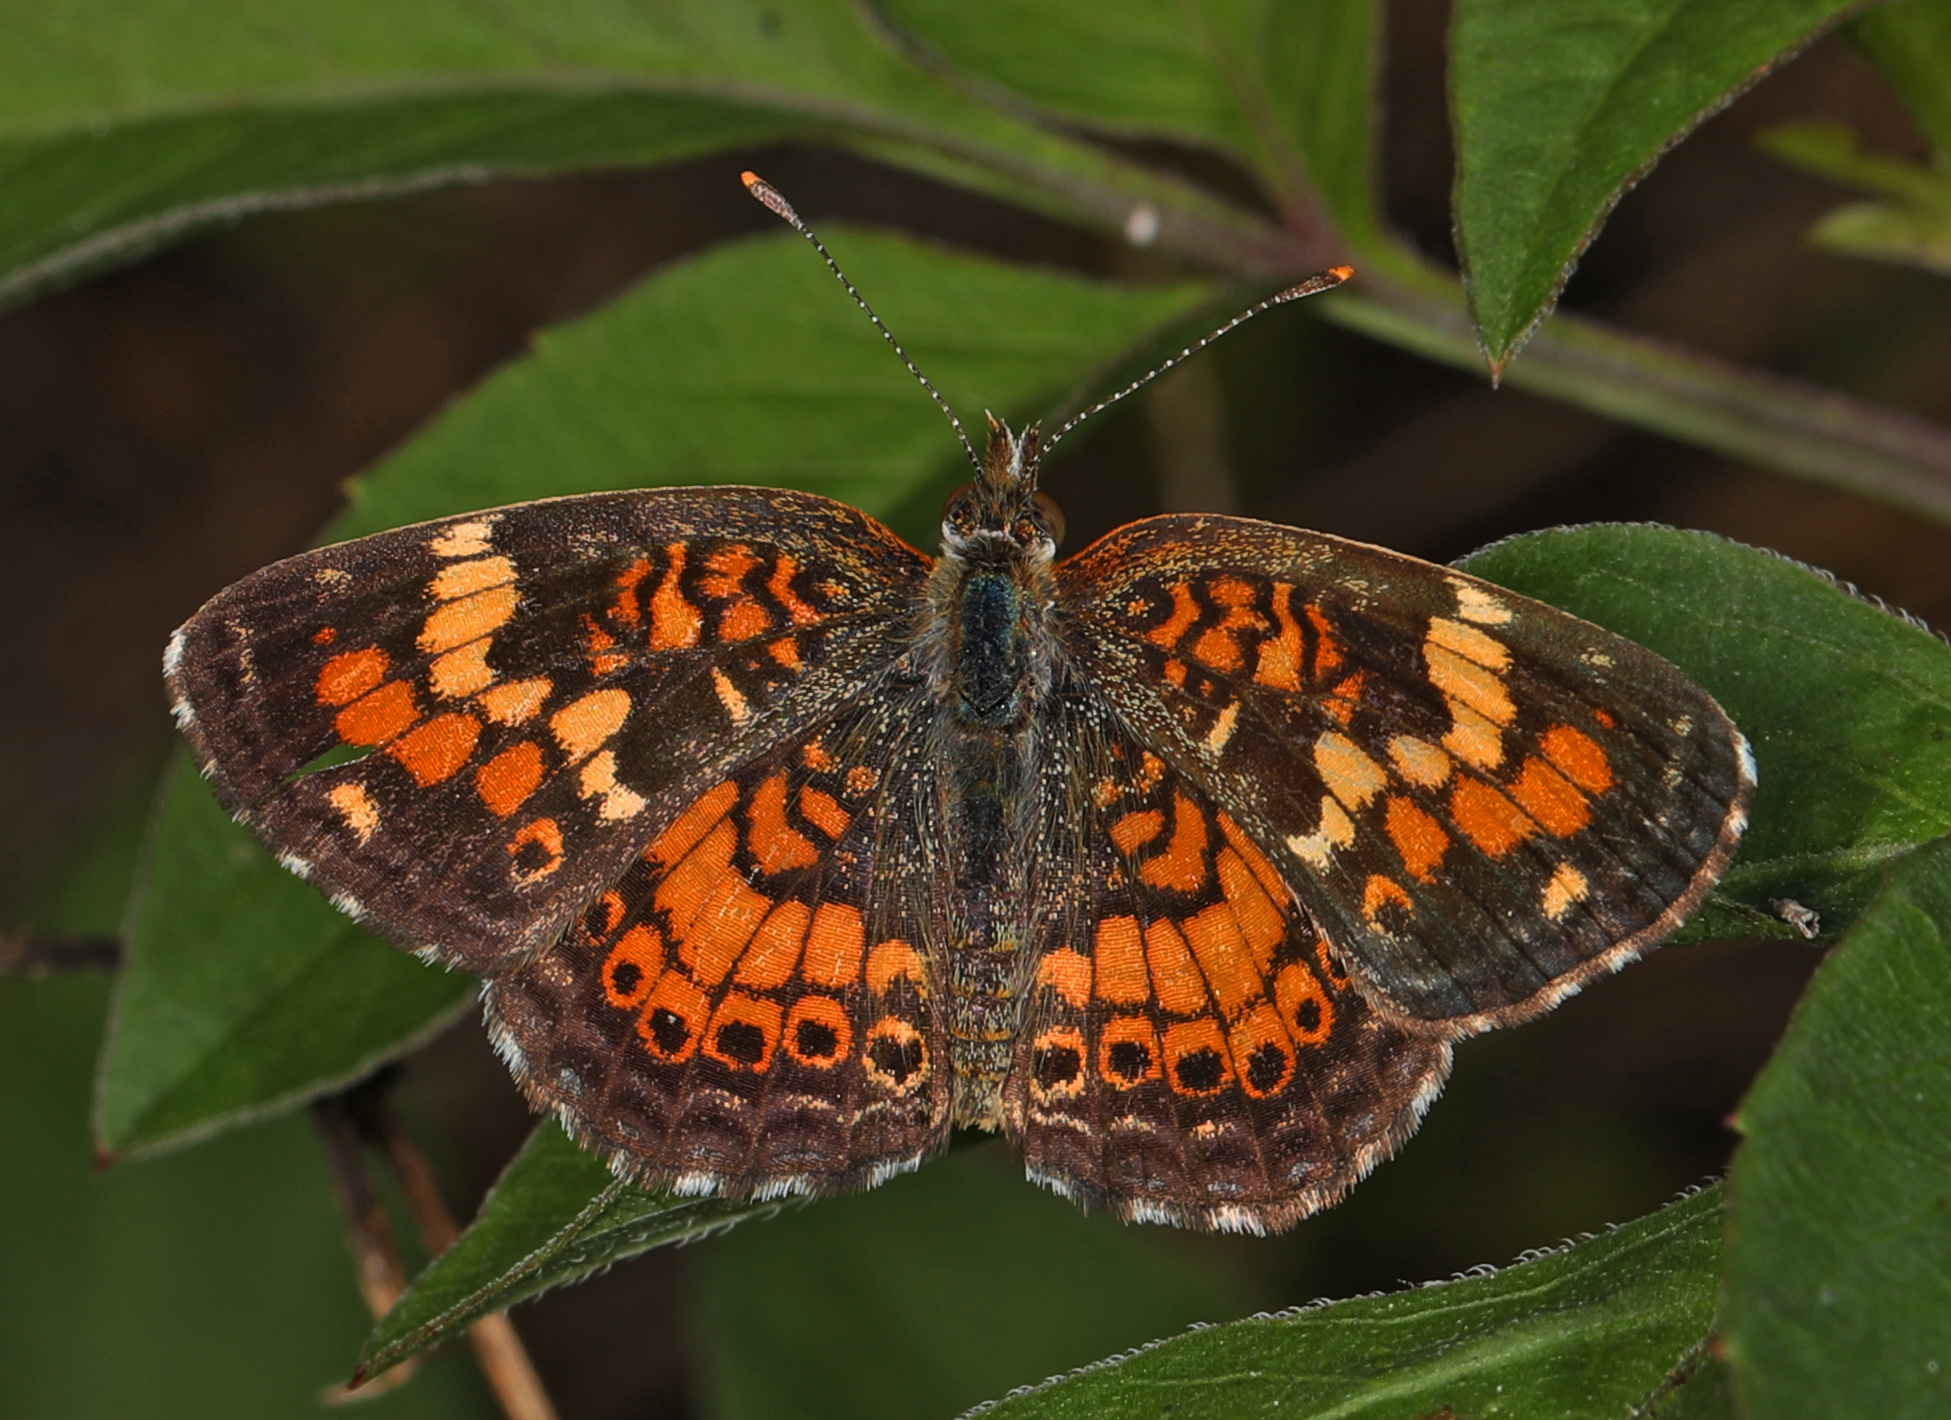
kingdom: Animalia
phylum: Arthropoda
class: Insecta
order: Lepidoptera
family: Nymphalidae
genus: Phyciodes
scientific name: Phyciodes tharos
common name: Pearl crescent
